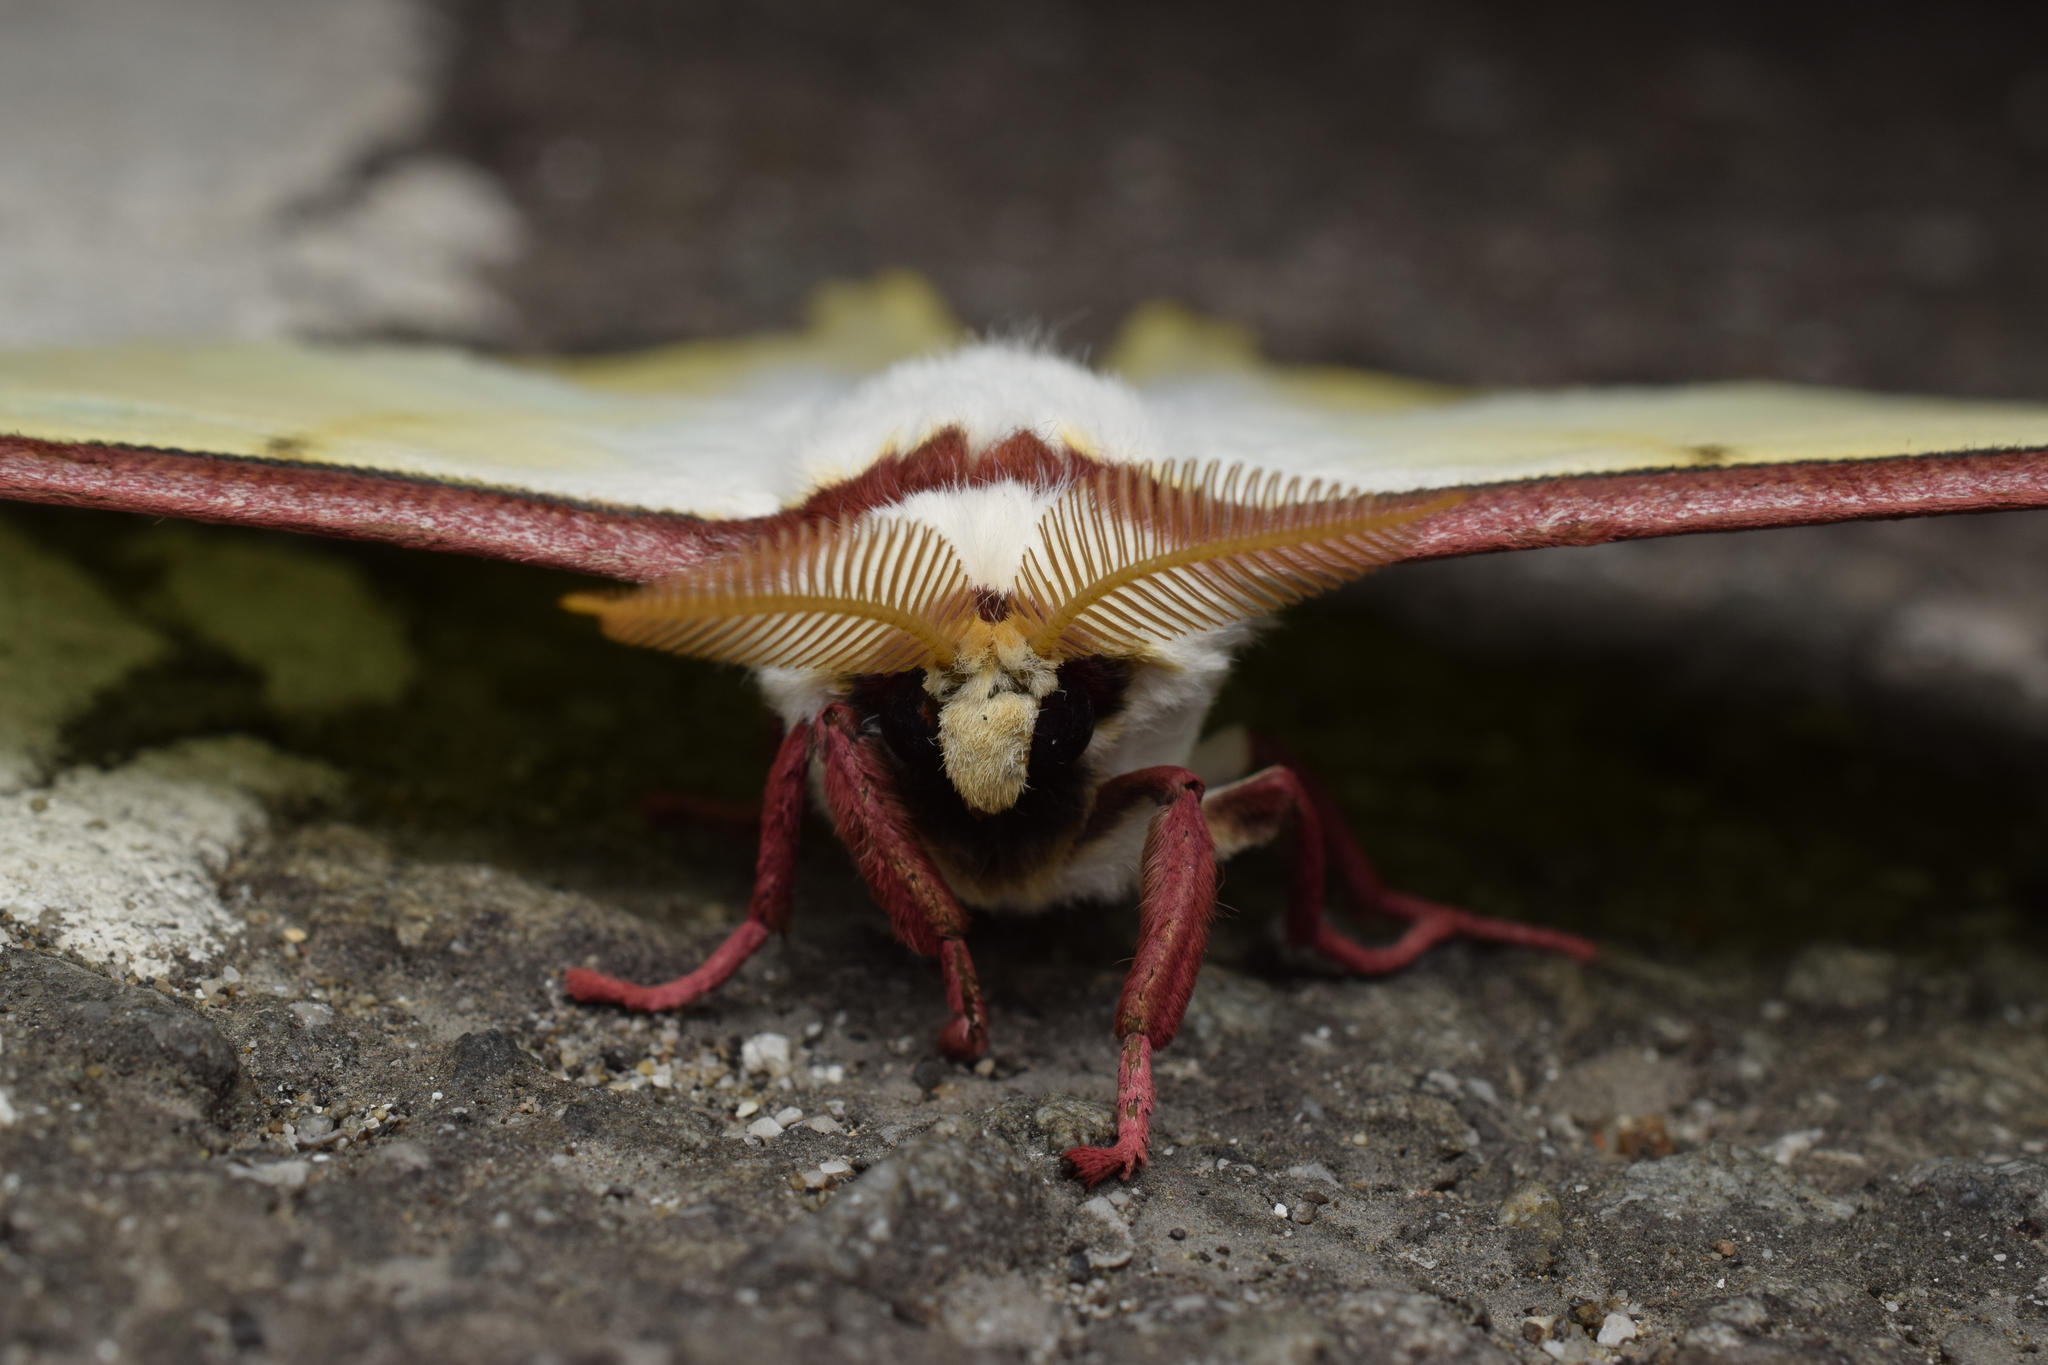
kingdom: Animalia
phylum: Arthropoda
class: Insecta
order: Lepidoptera
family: Saturniidae
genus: Actias
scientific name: Actias aliena
